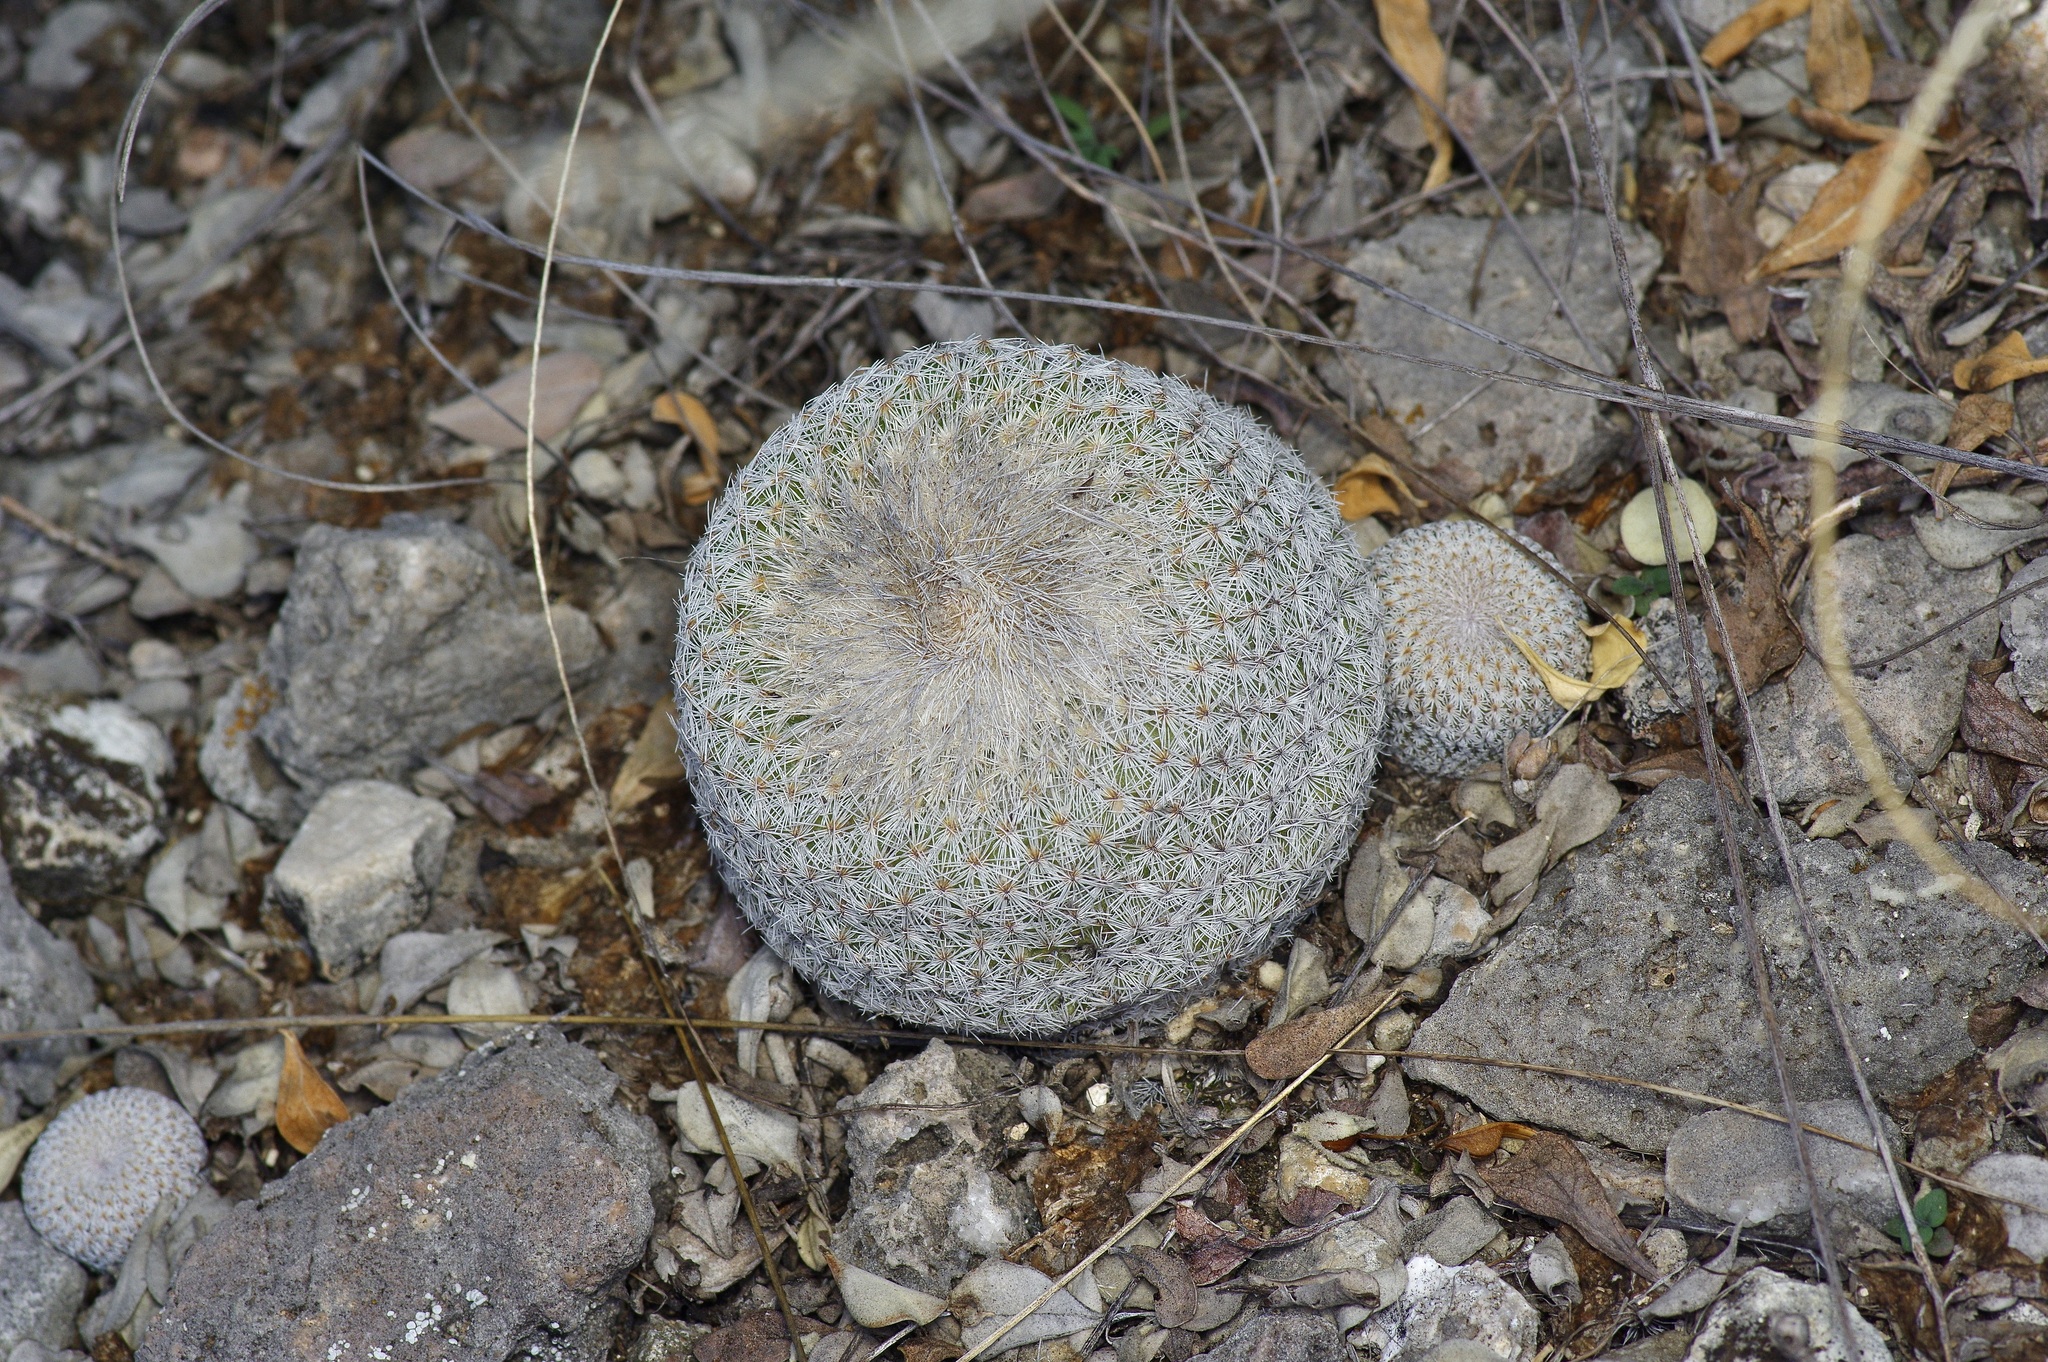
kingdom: Plantae
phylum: Tracheophyta
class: Magnoliopsida
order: Caryophyllales
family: Cactaceae
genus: Epithelantha
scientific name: Epithelantha micromeris
